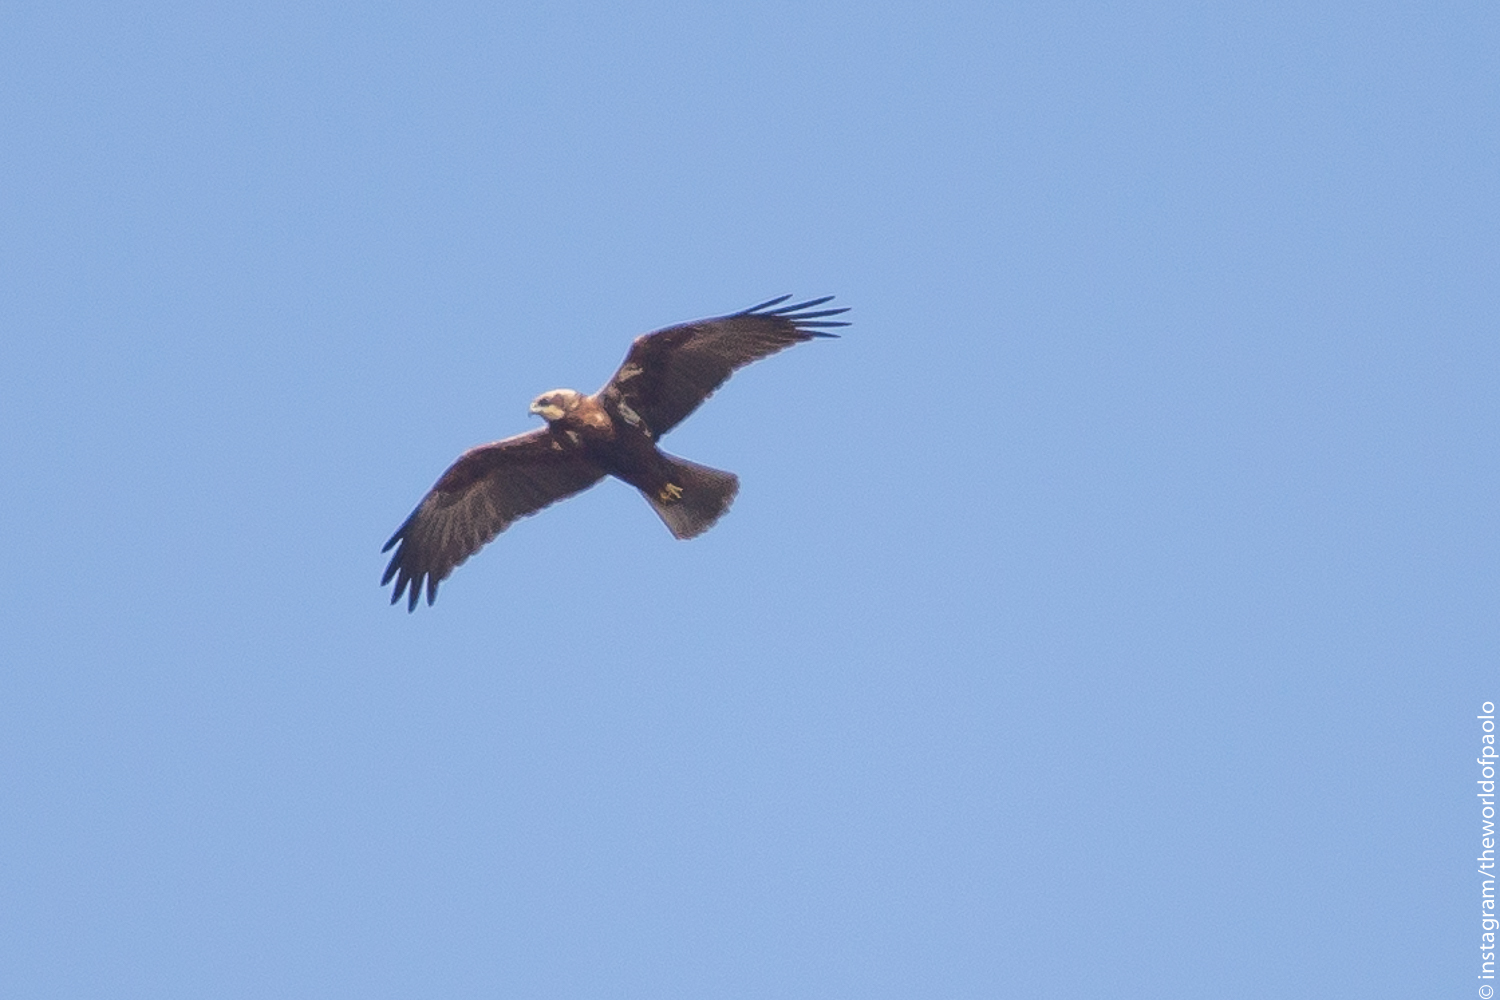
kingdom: Animalia
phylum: Chordata
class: Aves
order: Accipitriformes
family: Accipitridae
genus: Circus
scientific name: Circus aeruginosus
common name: Western marsh harrier
